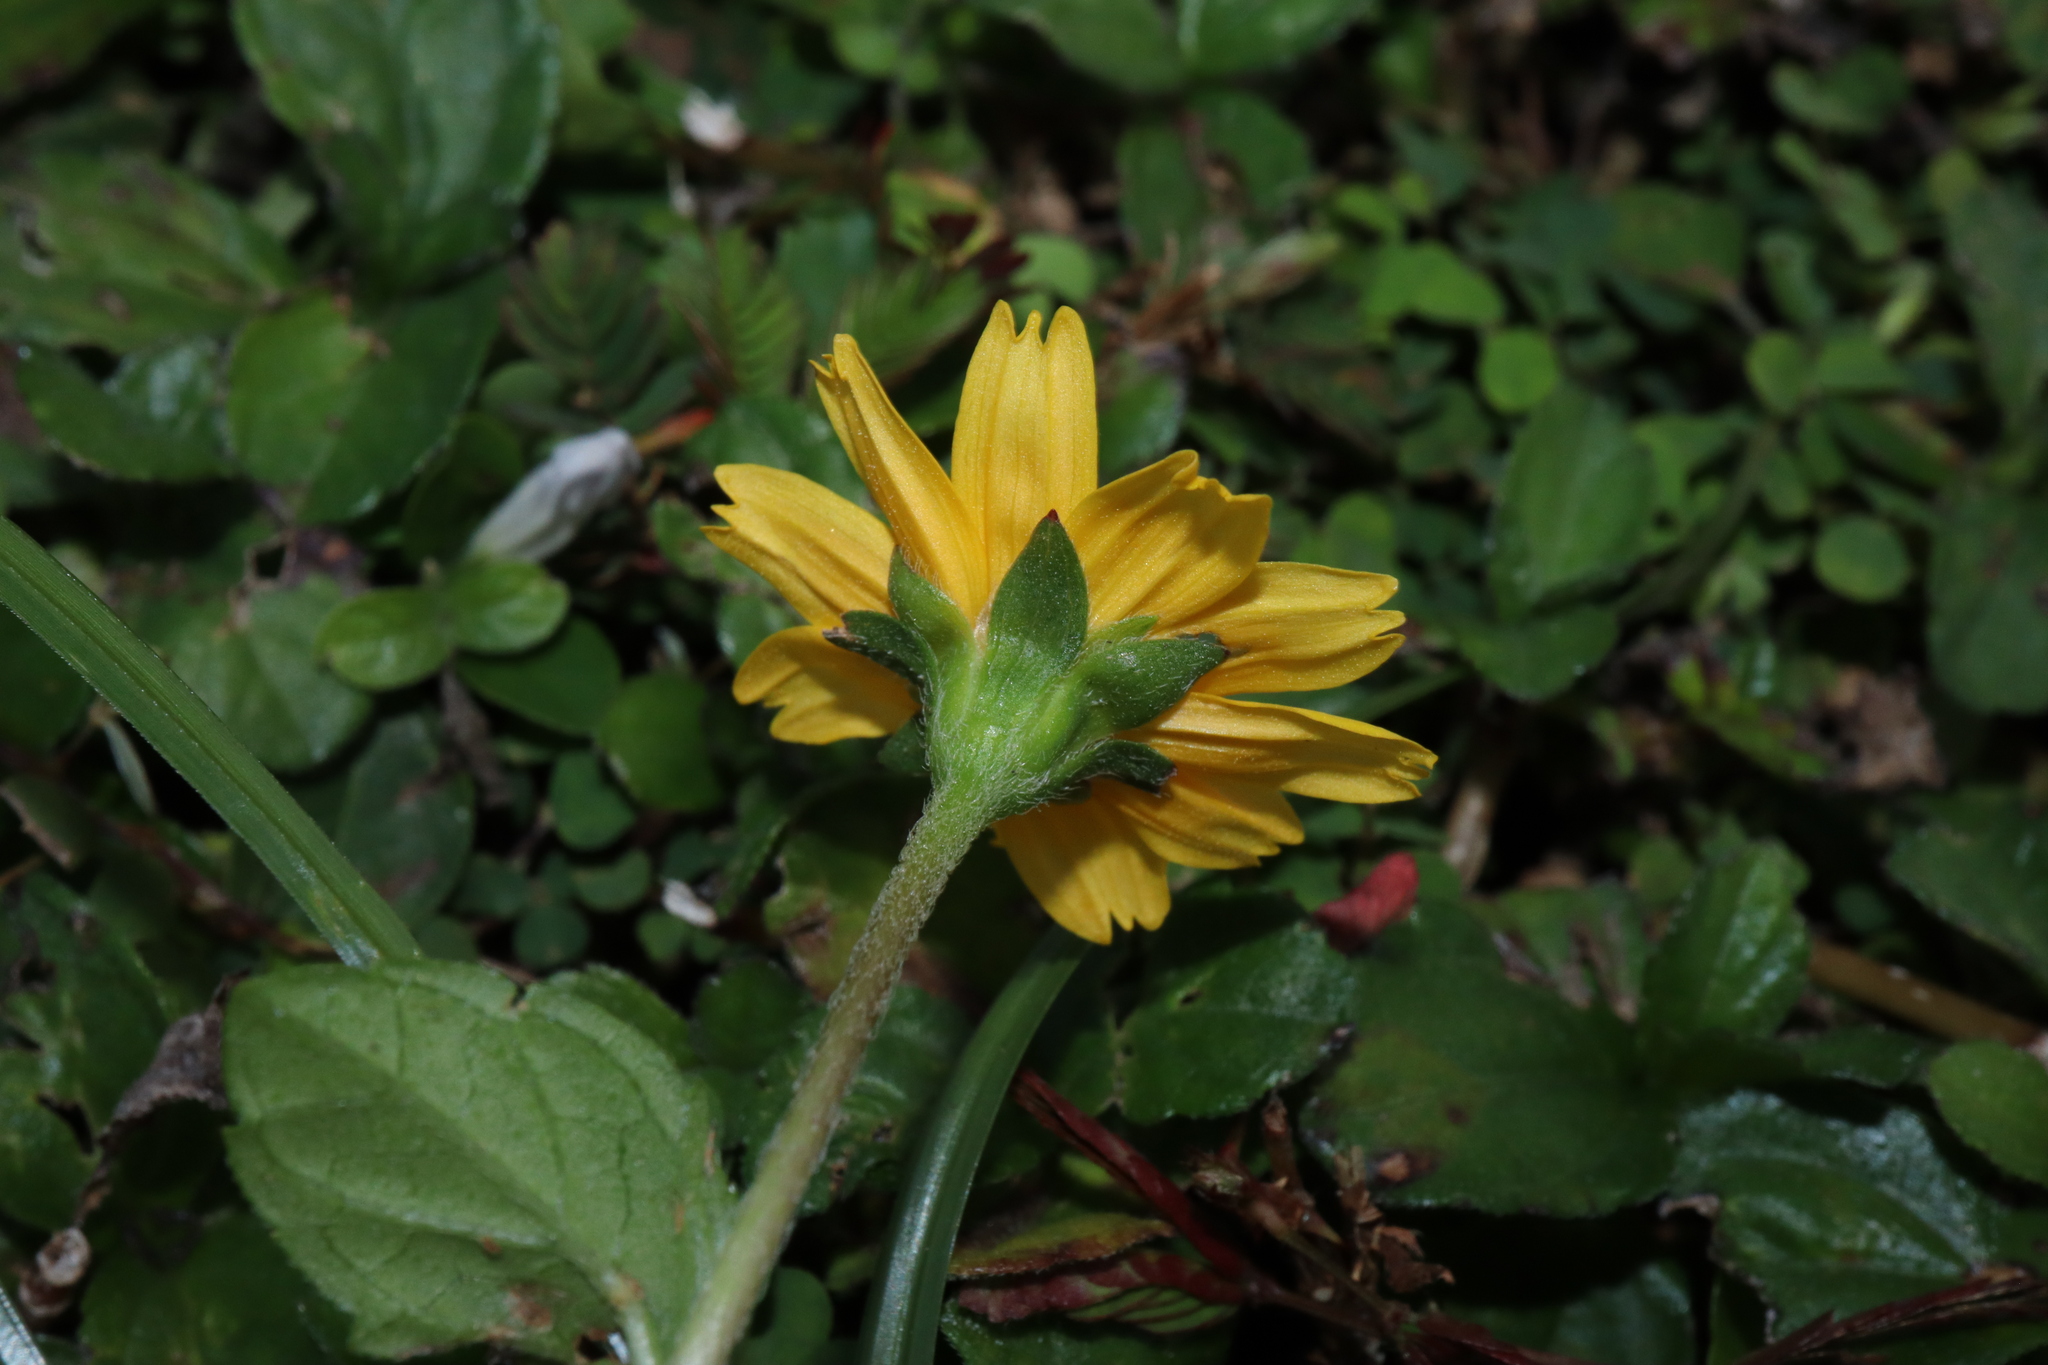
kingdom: Plantae
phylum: Tracheophyta
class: Magnoliopsida
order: Asterales
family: Asteraceae
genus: Sphagneticola
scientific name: Sphagneticola trilobata
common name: Bay biscayne creeping-oxeye
